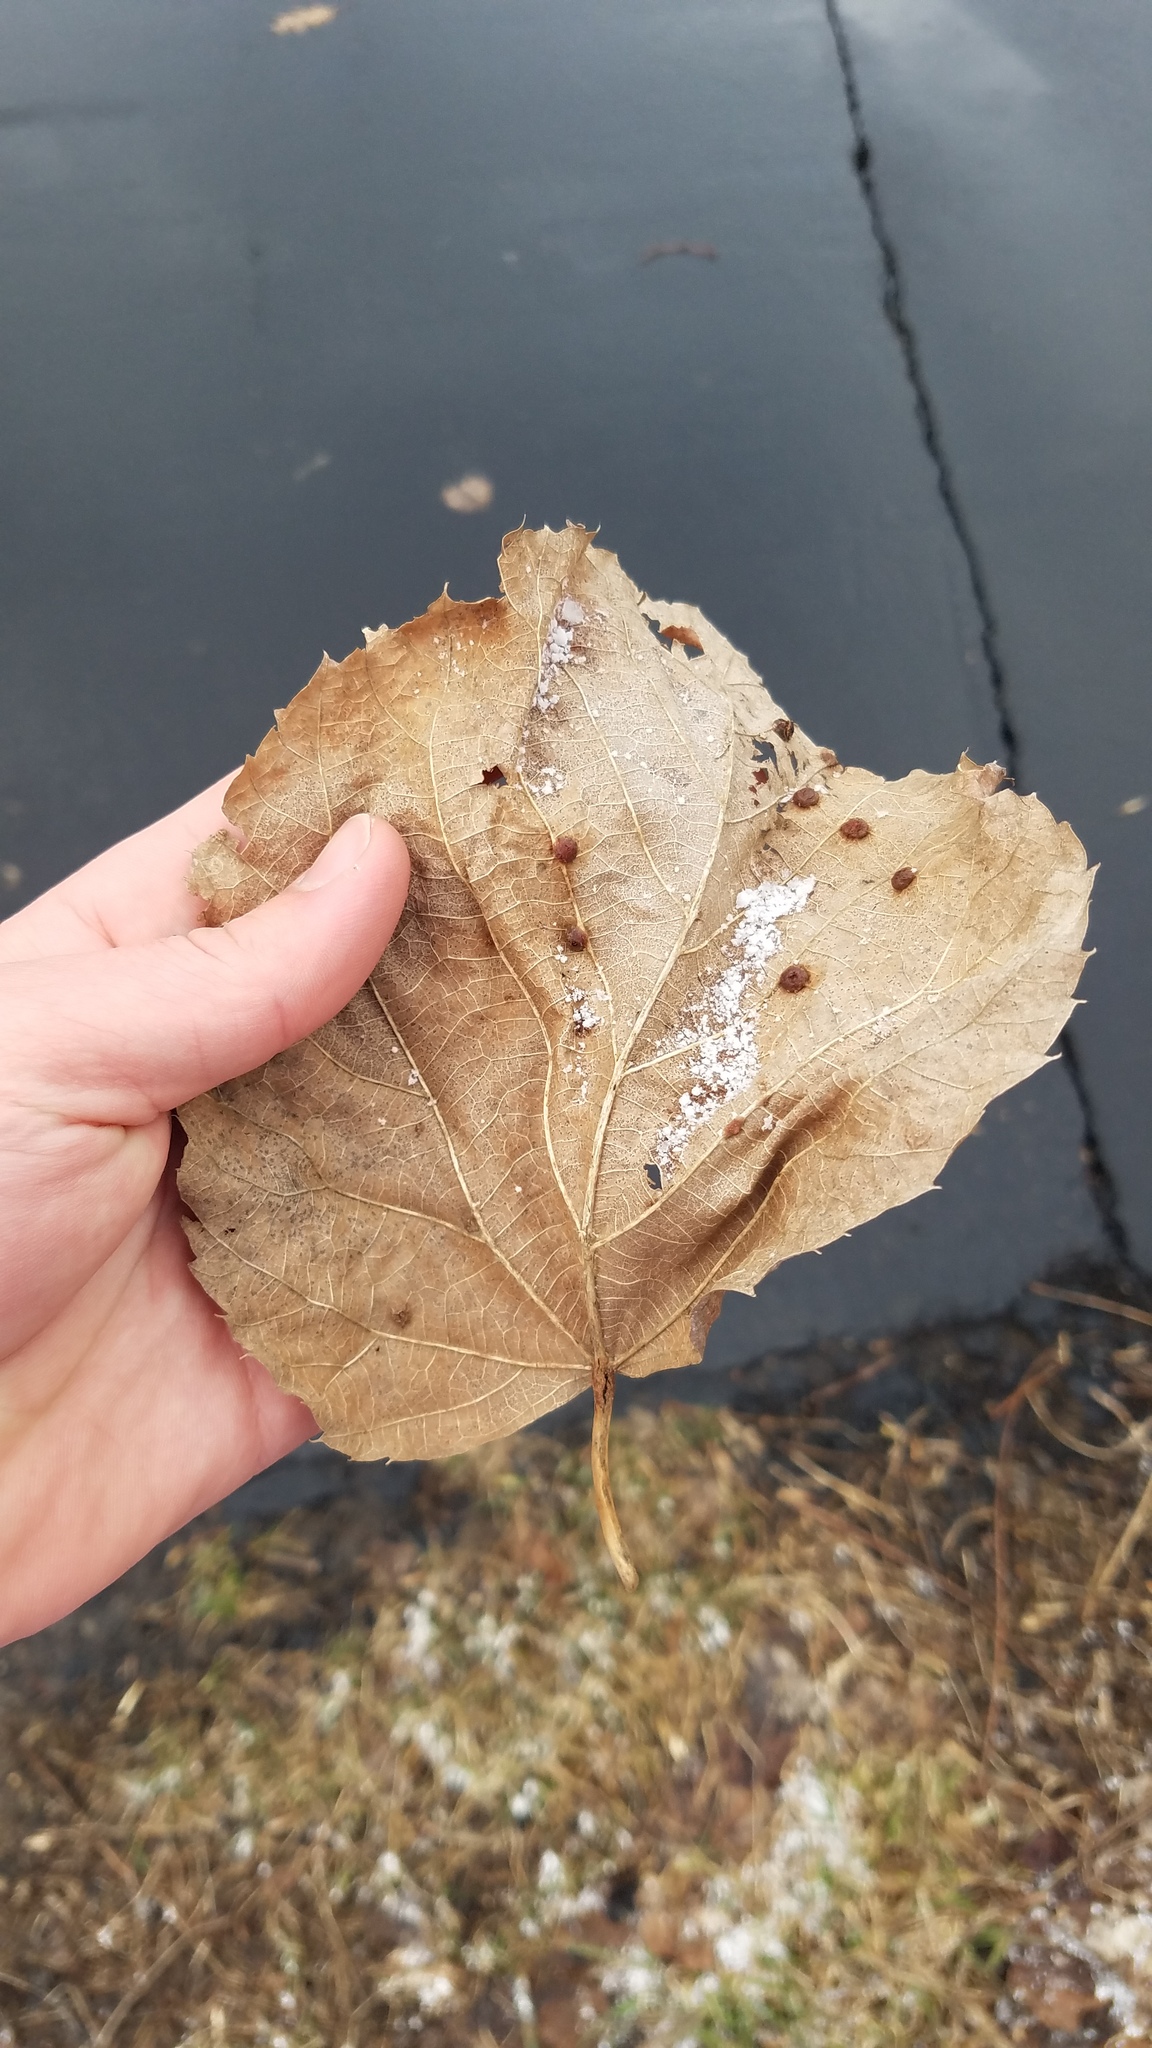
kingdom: Animalia
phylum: Arthropoda
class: Insecta
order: Diptera
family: Cecidomyiidae
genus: Contarinia
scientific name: Contarinia verrucicola
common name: Linden wart gall midge
